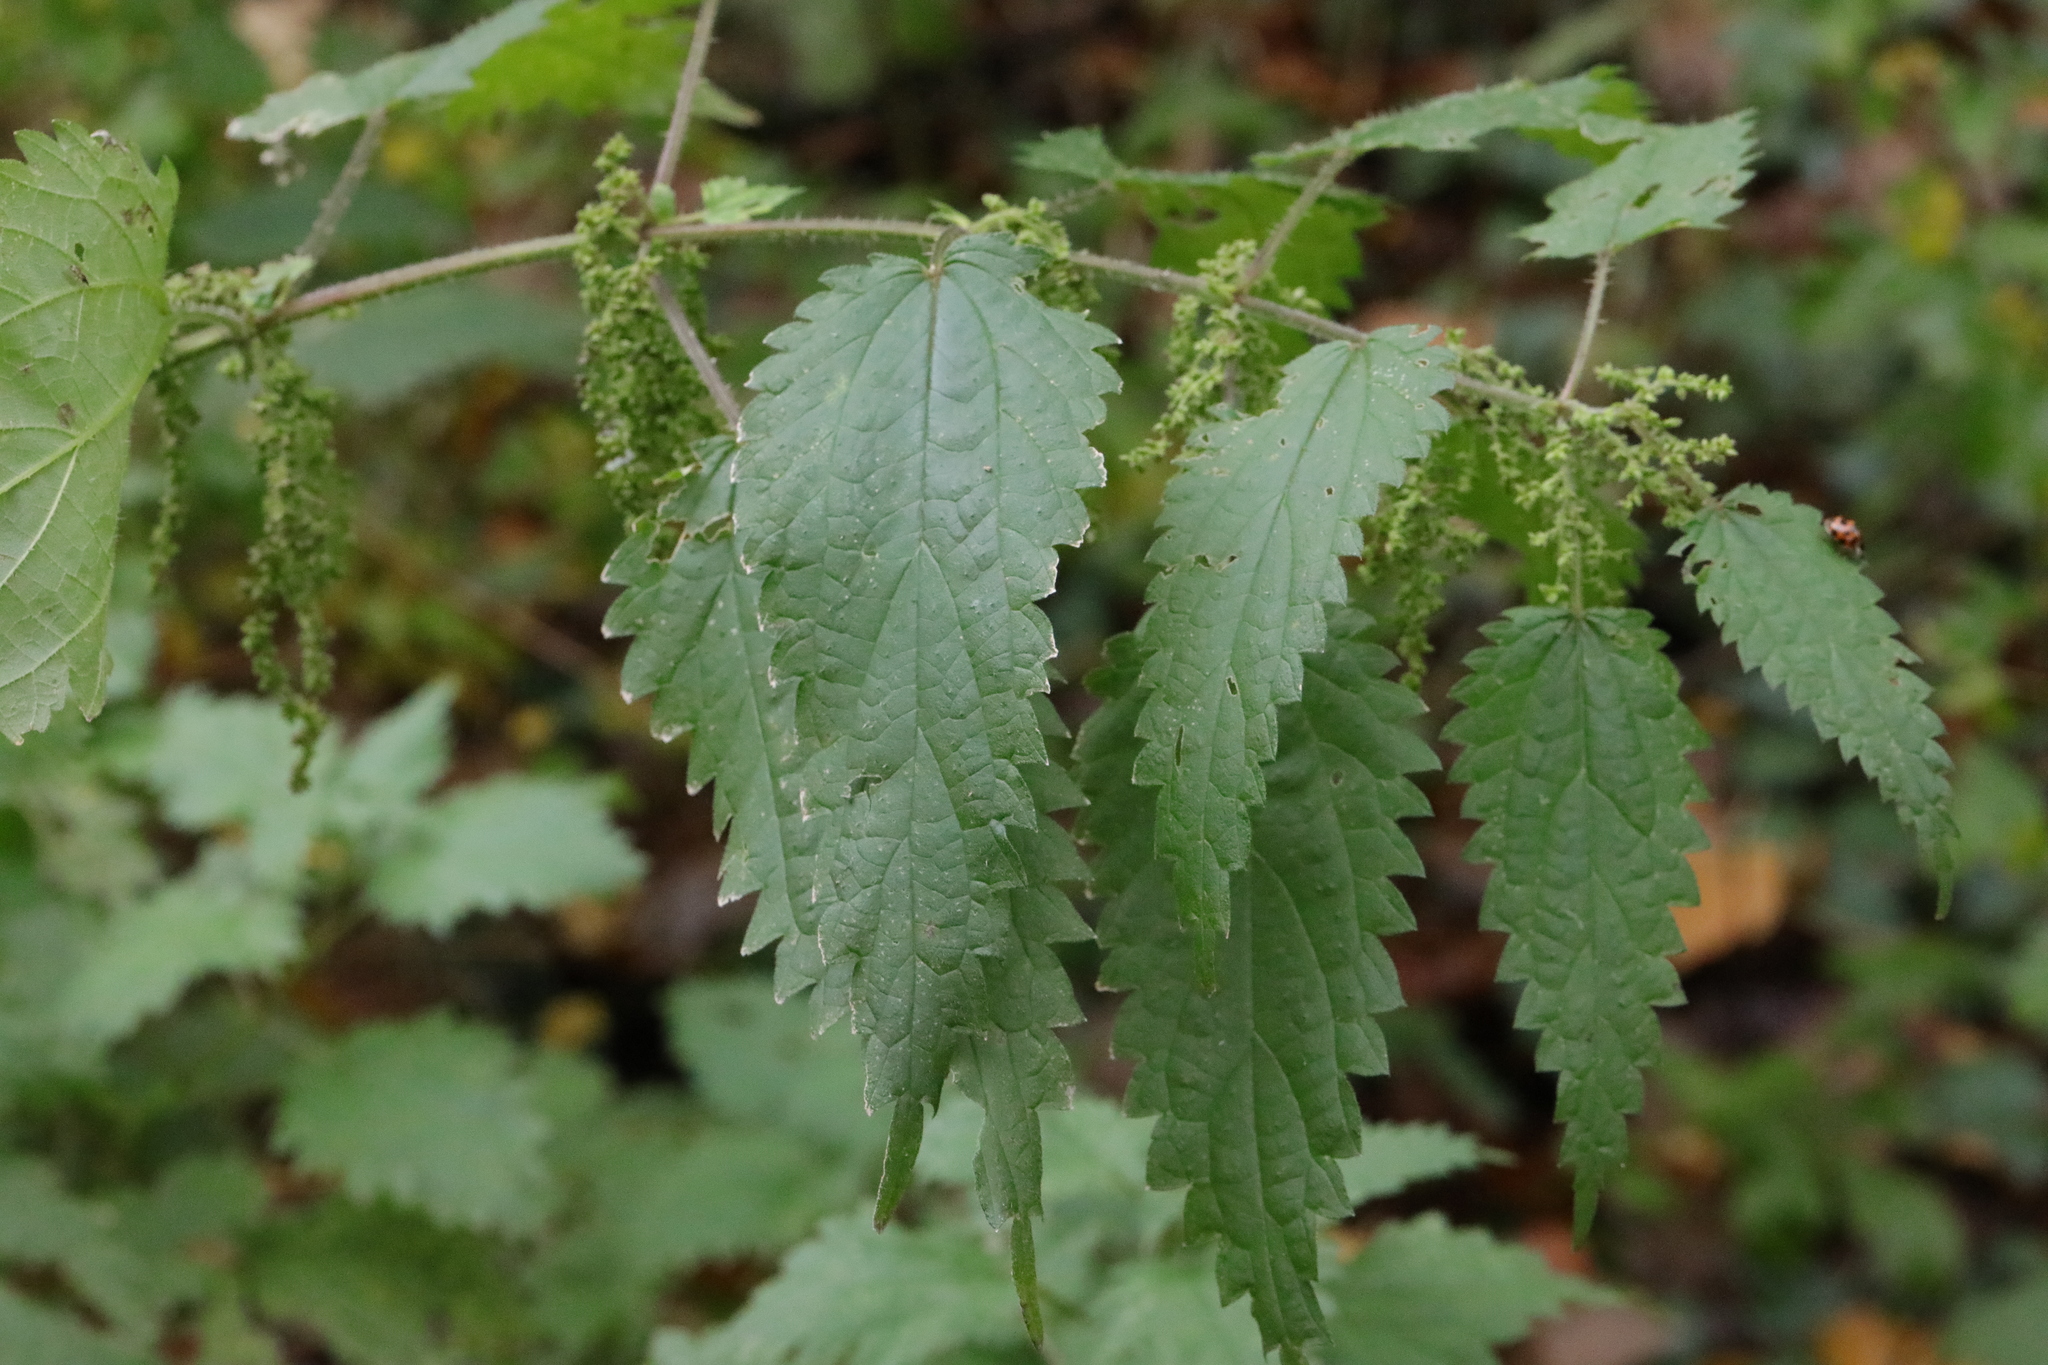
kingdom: Plantae
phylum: Tracheophyta
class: Magnoliopsida
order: Rosales
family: Urticaceae
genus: Urtica
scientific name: Urtica dioica
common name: Common nettle
